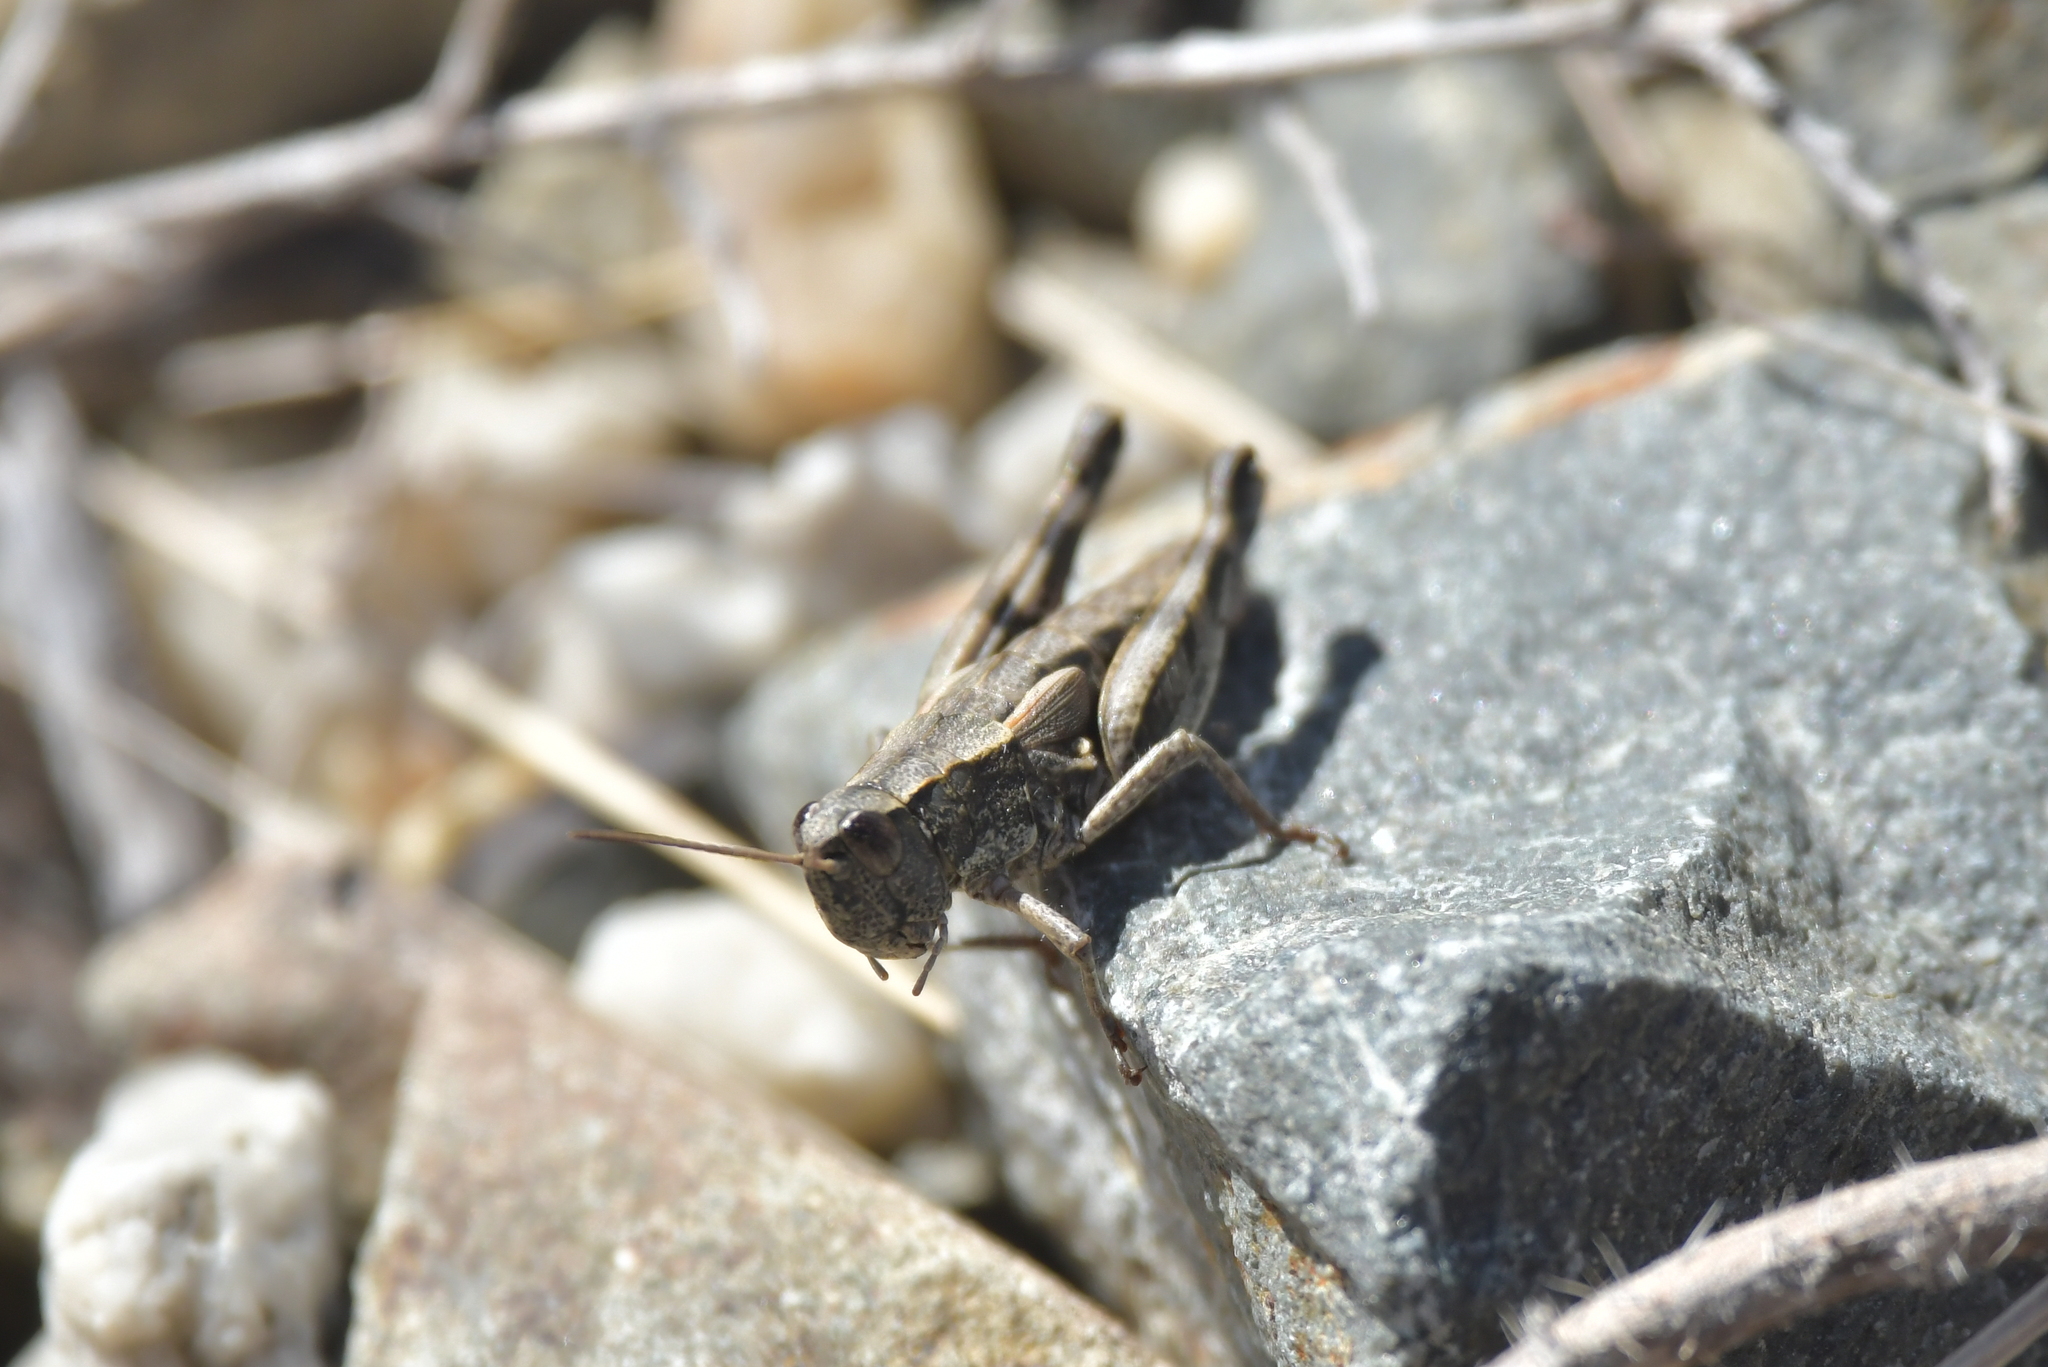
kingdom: Animalia
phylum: Arthropoda
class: Insecta
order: Orthoptera
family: Acrididae
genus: Sigaus
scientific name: Sigaus australis
